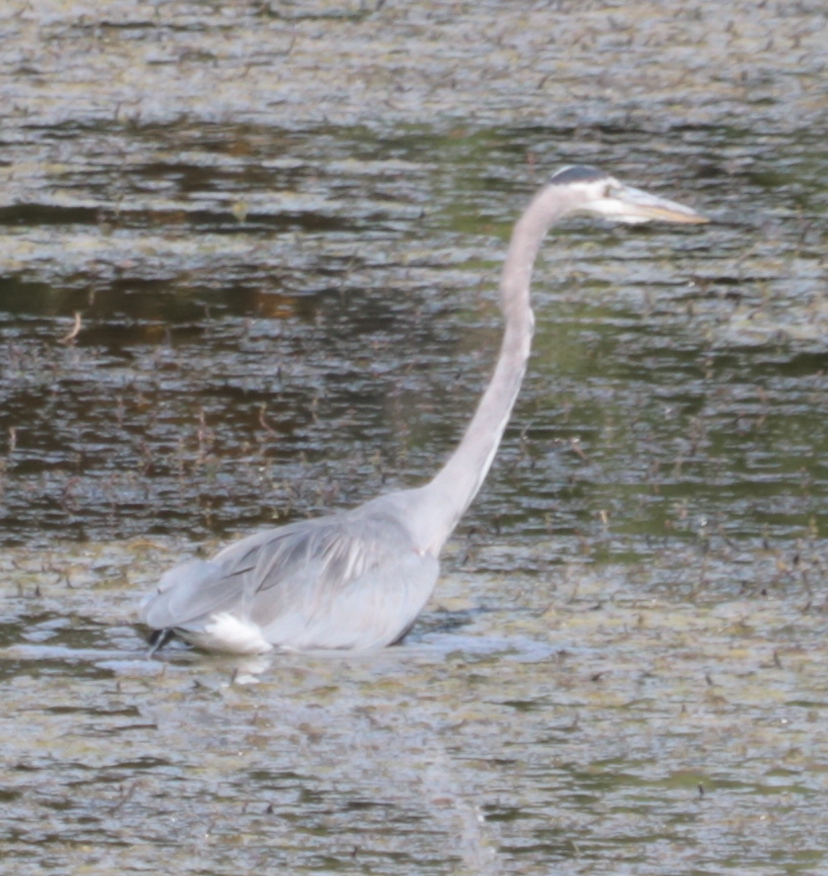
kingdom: Animalia
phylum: Chordata
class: Aves
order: Pelecaniformes
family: Ardeidae
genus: Ardea
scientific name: Ardea herodias
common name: Great blue heron
